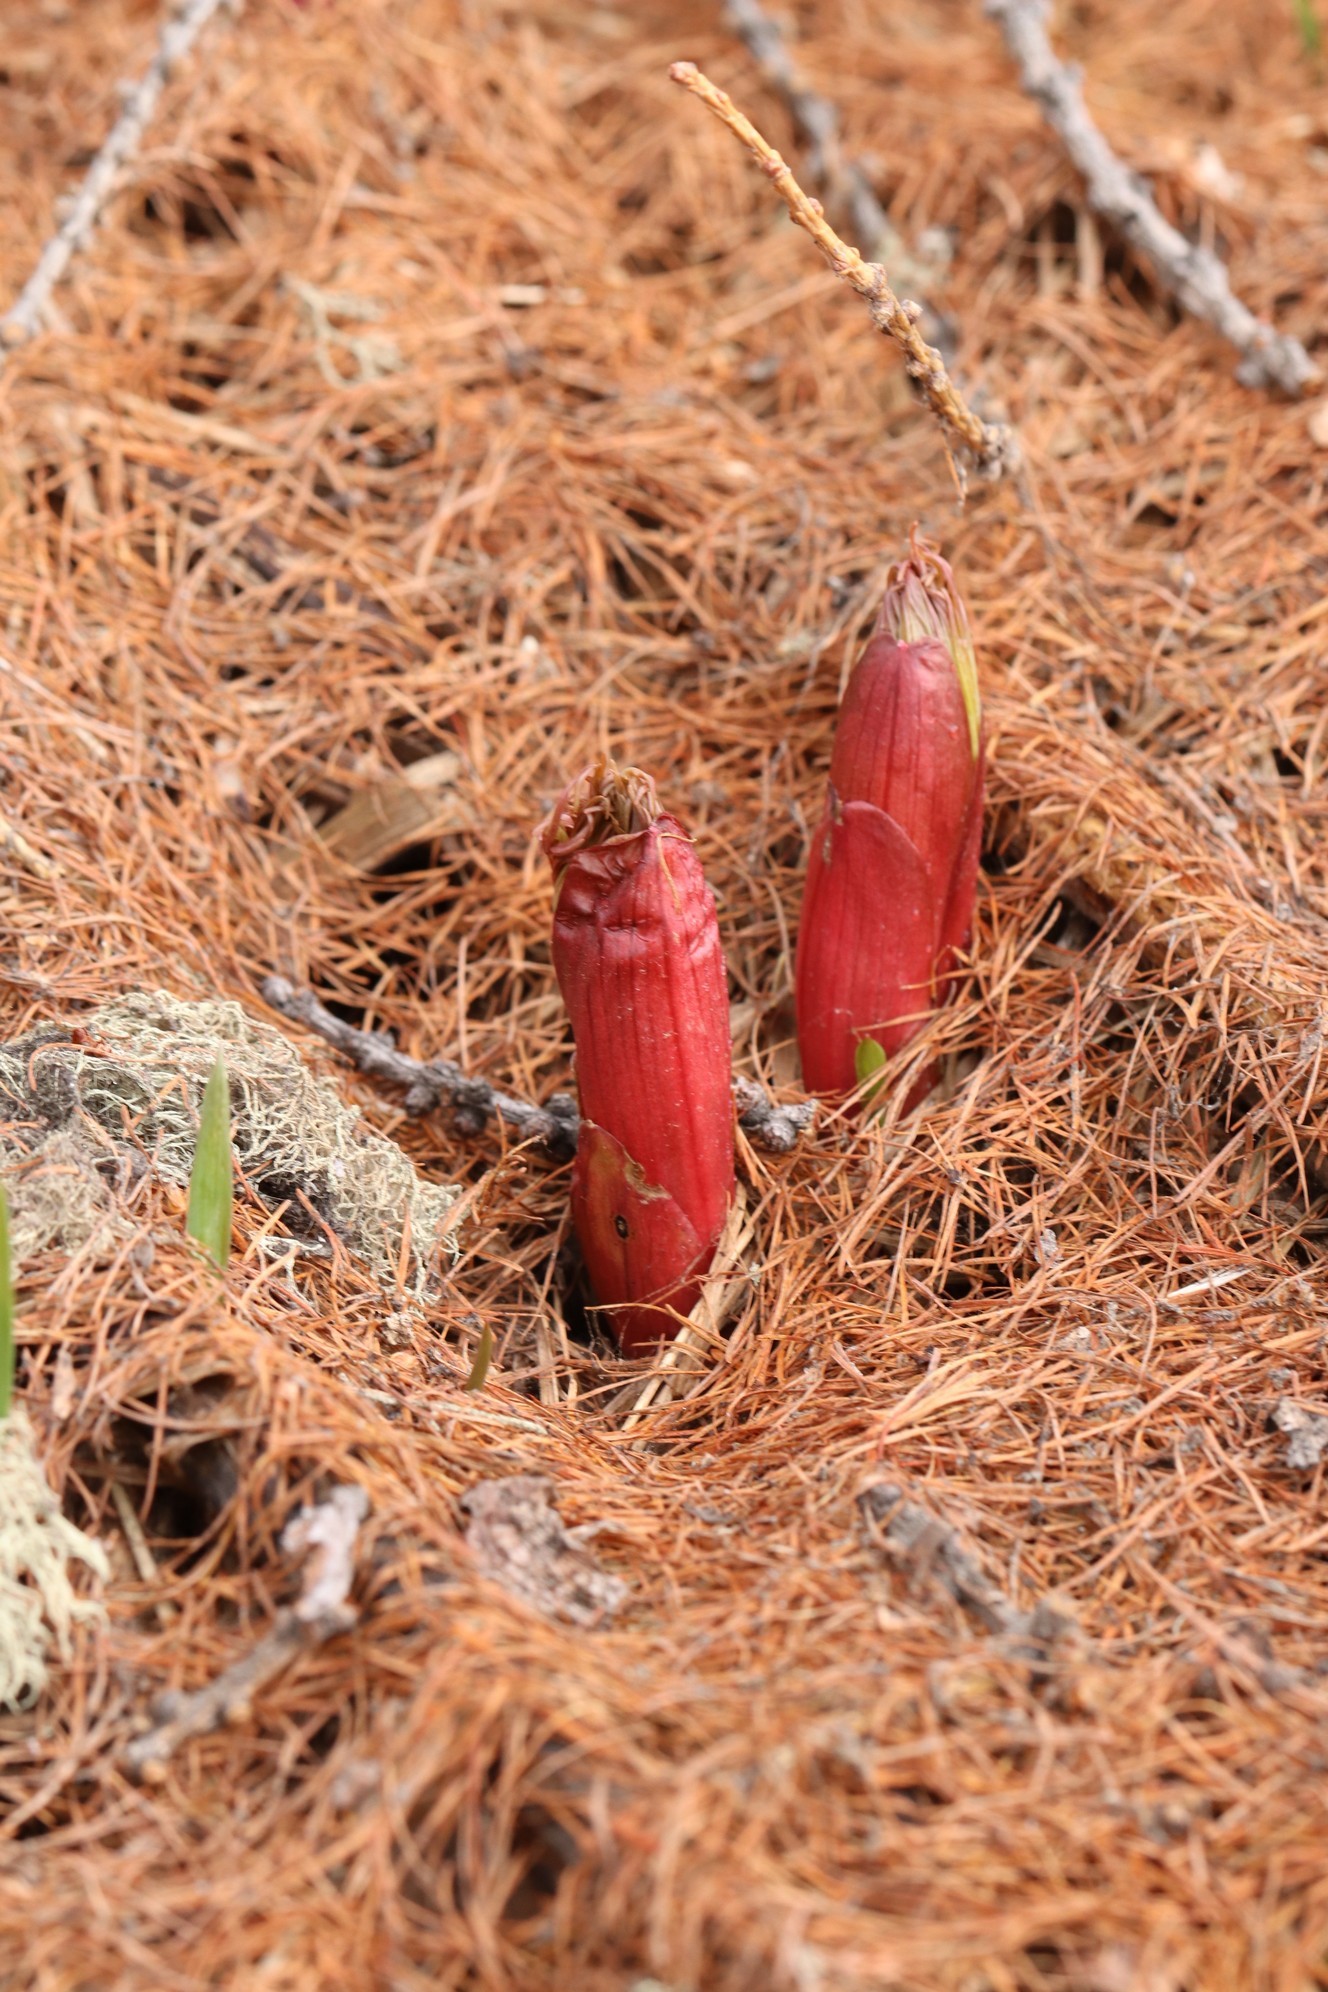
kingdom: Plantae
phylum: Tracheophyta
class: Magnoliopsida
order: Saxifragales
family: Paeoniaceae
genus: Paeonia
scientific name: Paeonia anomala
